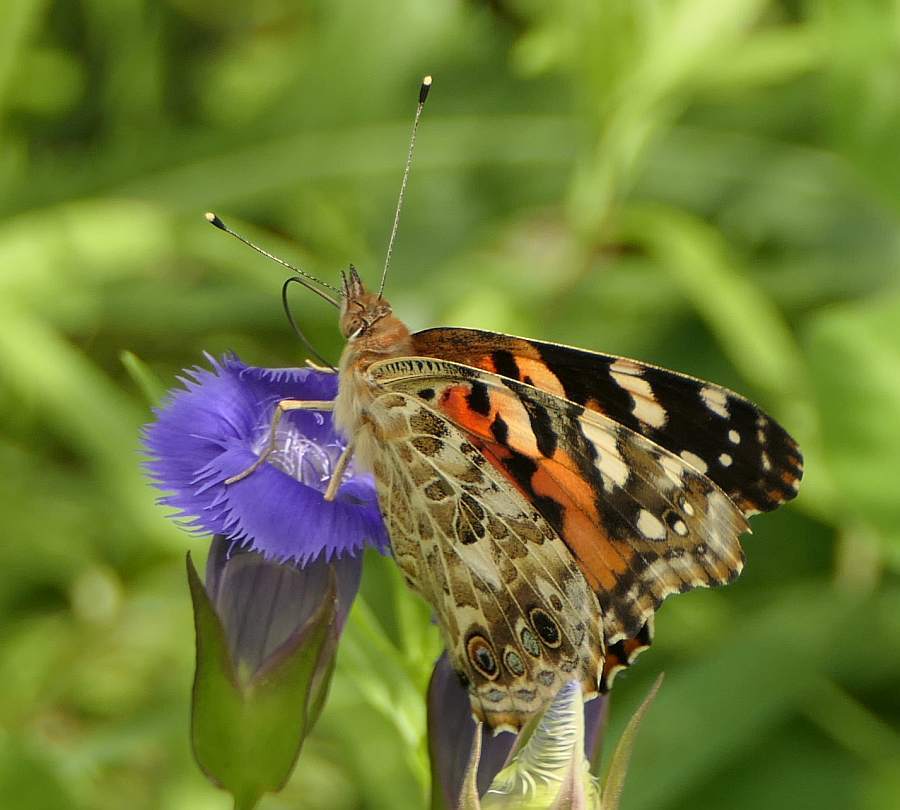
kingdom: Animalia
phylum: Arthropoda
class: Insecta
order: Lepidoptera
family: Nymphalidae
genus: Vanessa
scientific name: Vanessa cardui
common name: Painted lady
